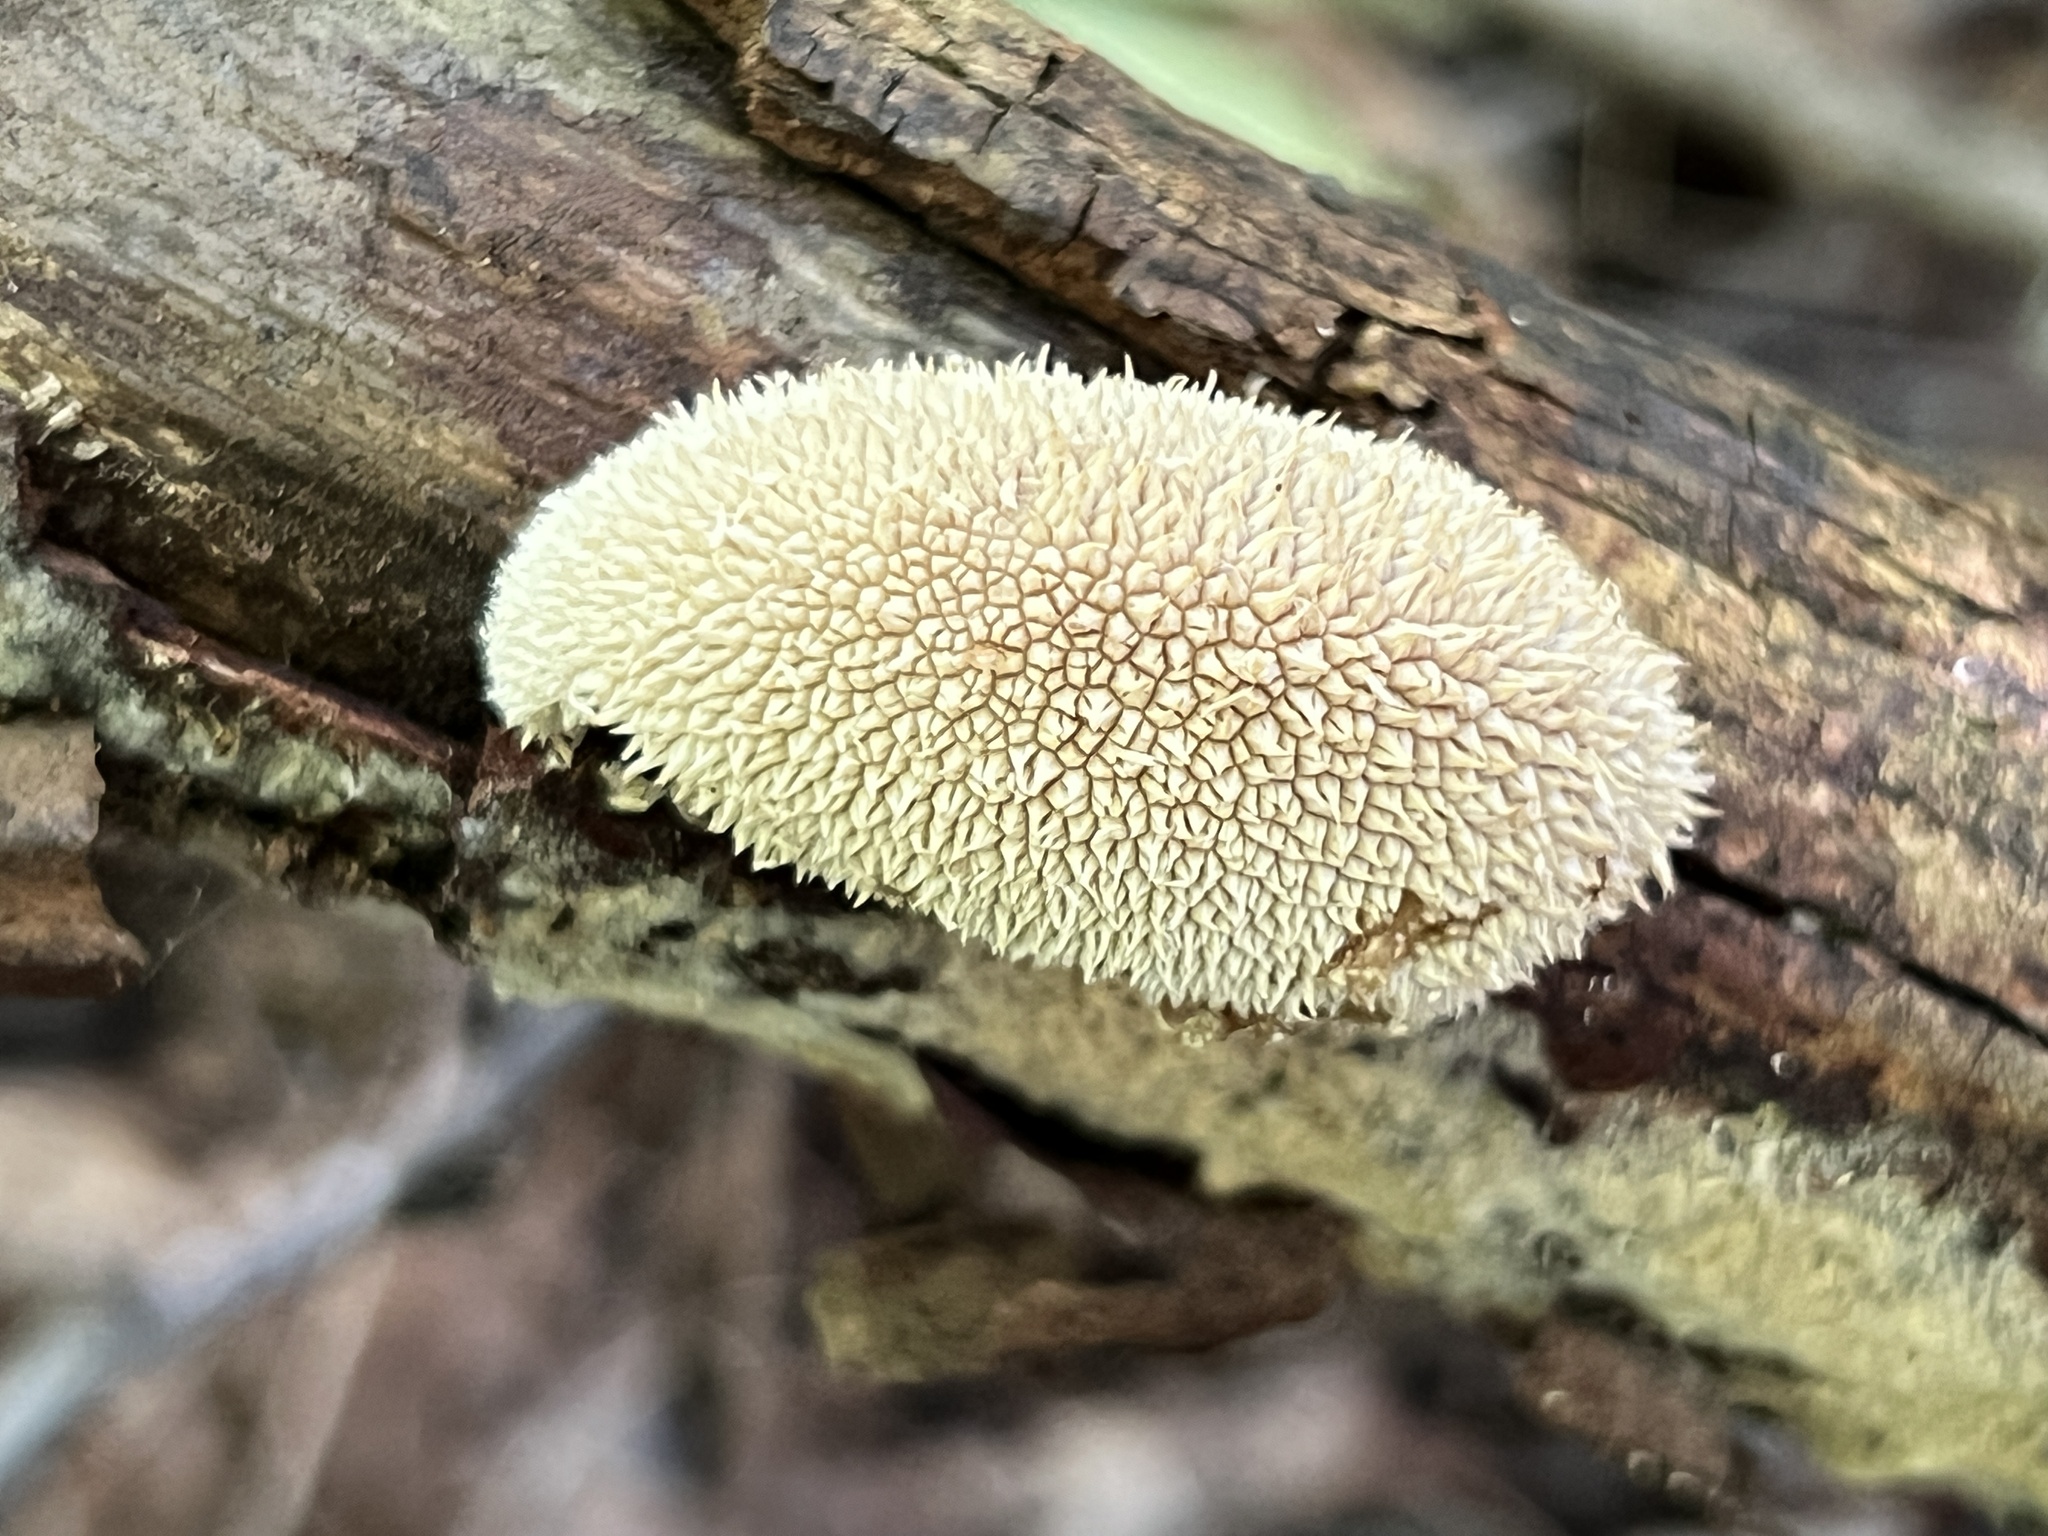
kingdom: Fungi
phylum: Basidiomycota
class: Agaricomycetes
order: Agaricales
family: Lycoperdaceae
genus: Lycoperdon
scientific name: Lycoperdon echinatum
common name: Hedgehog puffball
